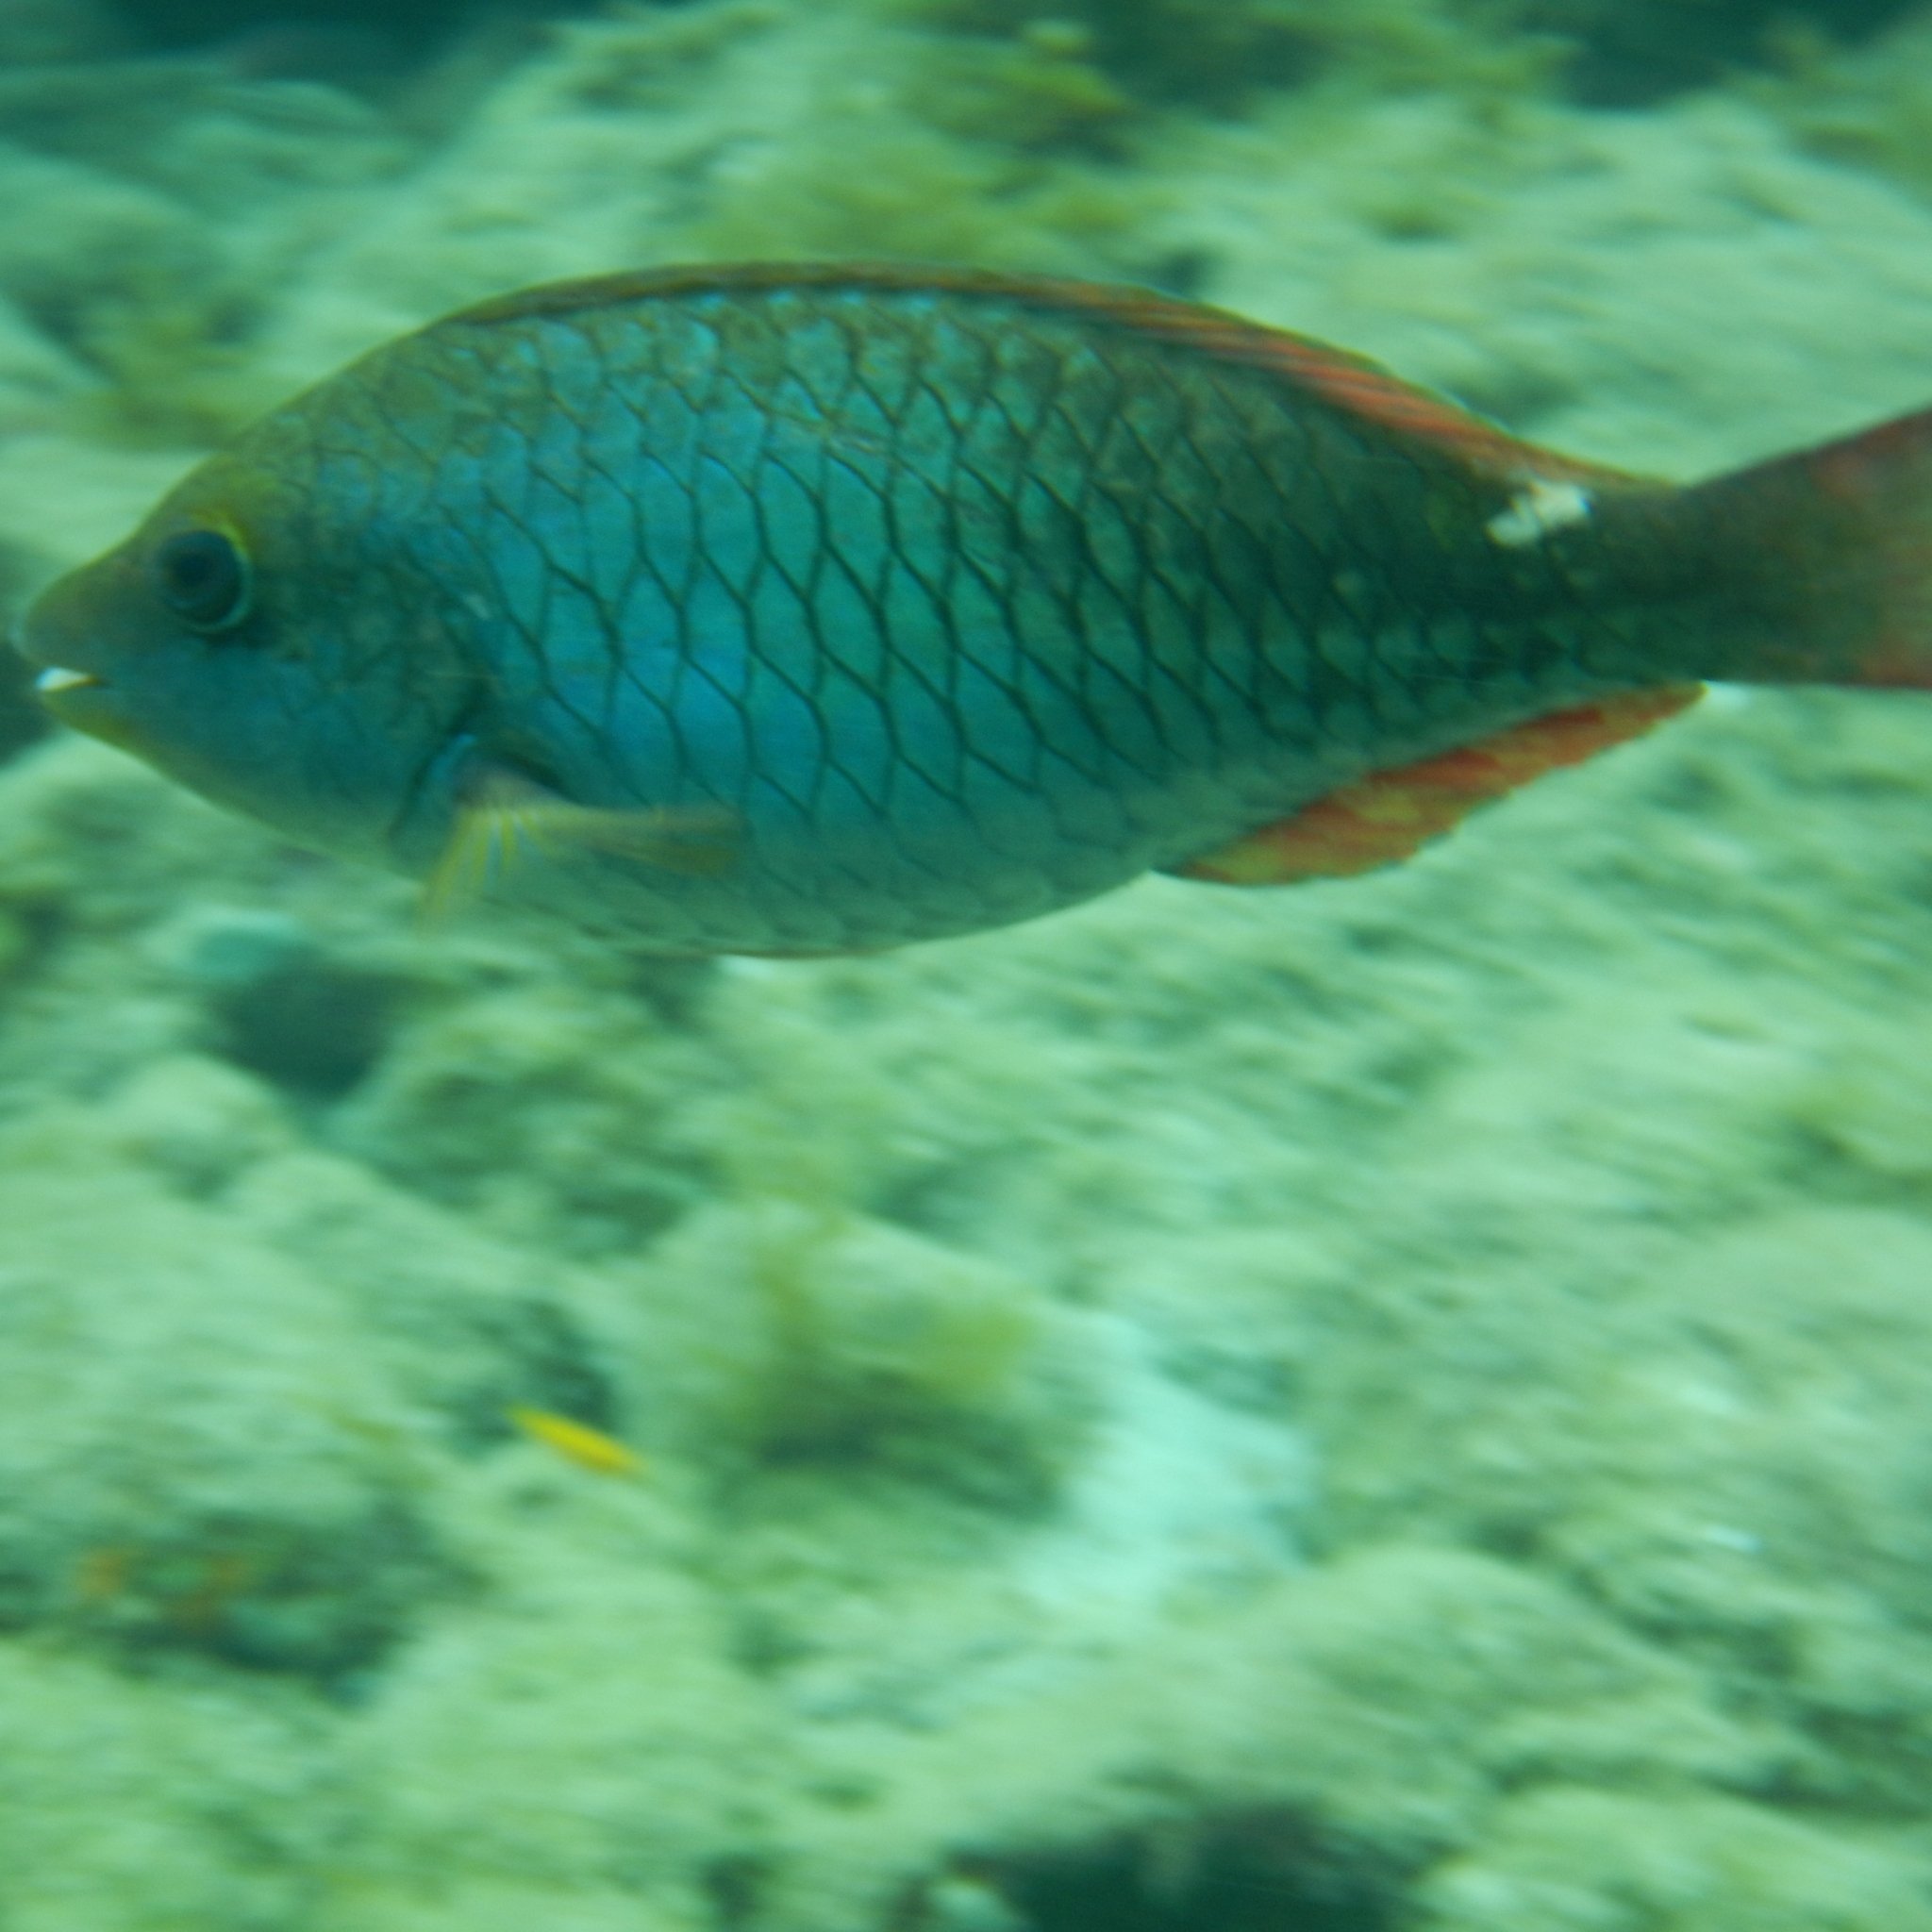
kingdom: Animalia
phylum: Chordata
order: Perciformes
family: Scaridae
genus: Sparisoma
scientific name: Sparisoma aurofrenatum
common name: Redband parrotfish
